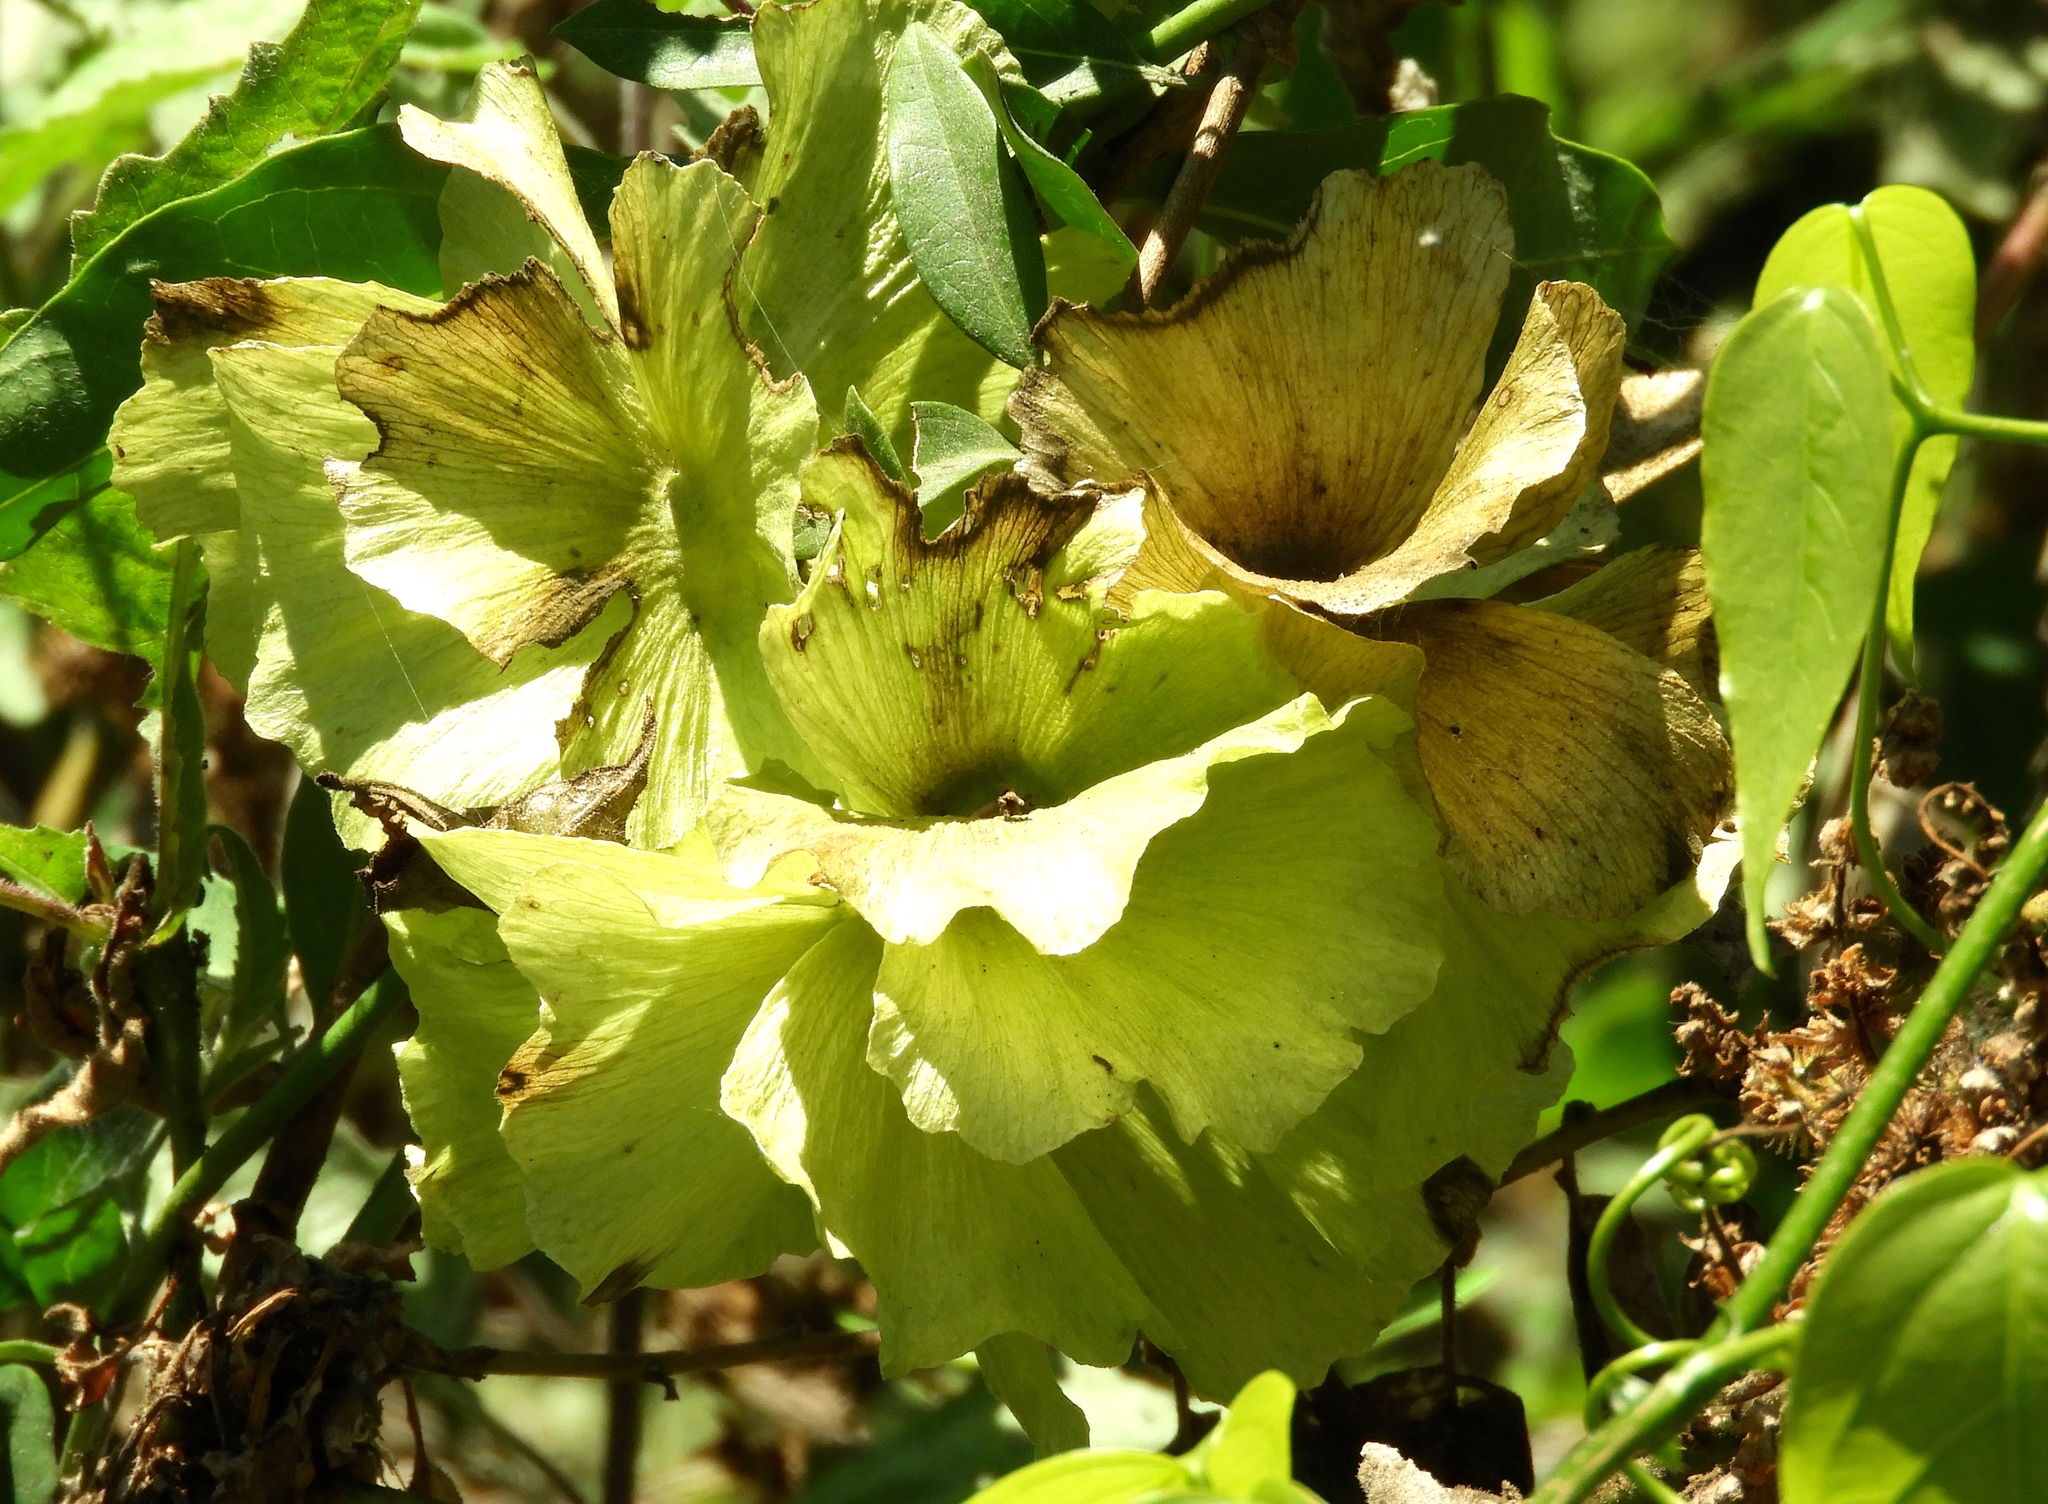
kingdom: Plantae
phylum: Tracheophyta
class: Magnoliopsida
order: Malpighiales
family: Malpighiaceae
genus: Callaeum
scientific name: Callaeum macropterum
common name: Mexican butterfly-vine
